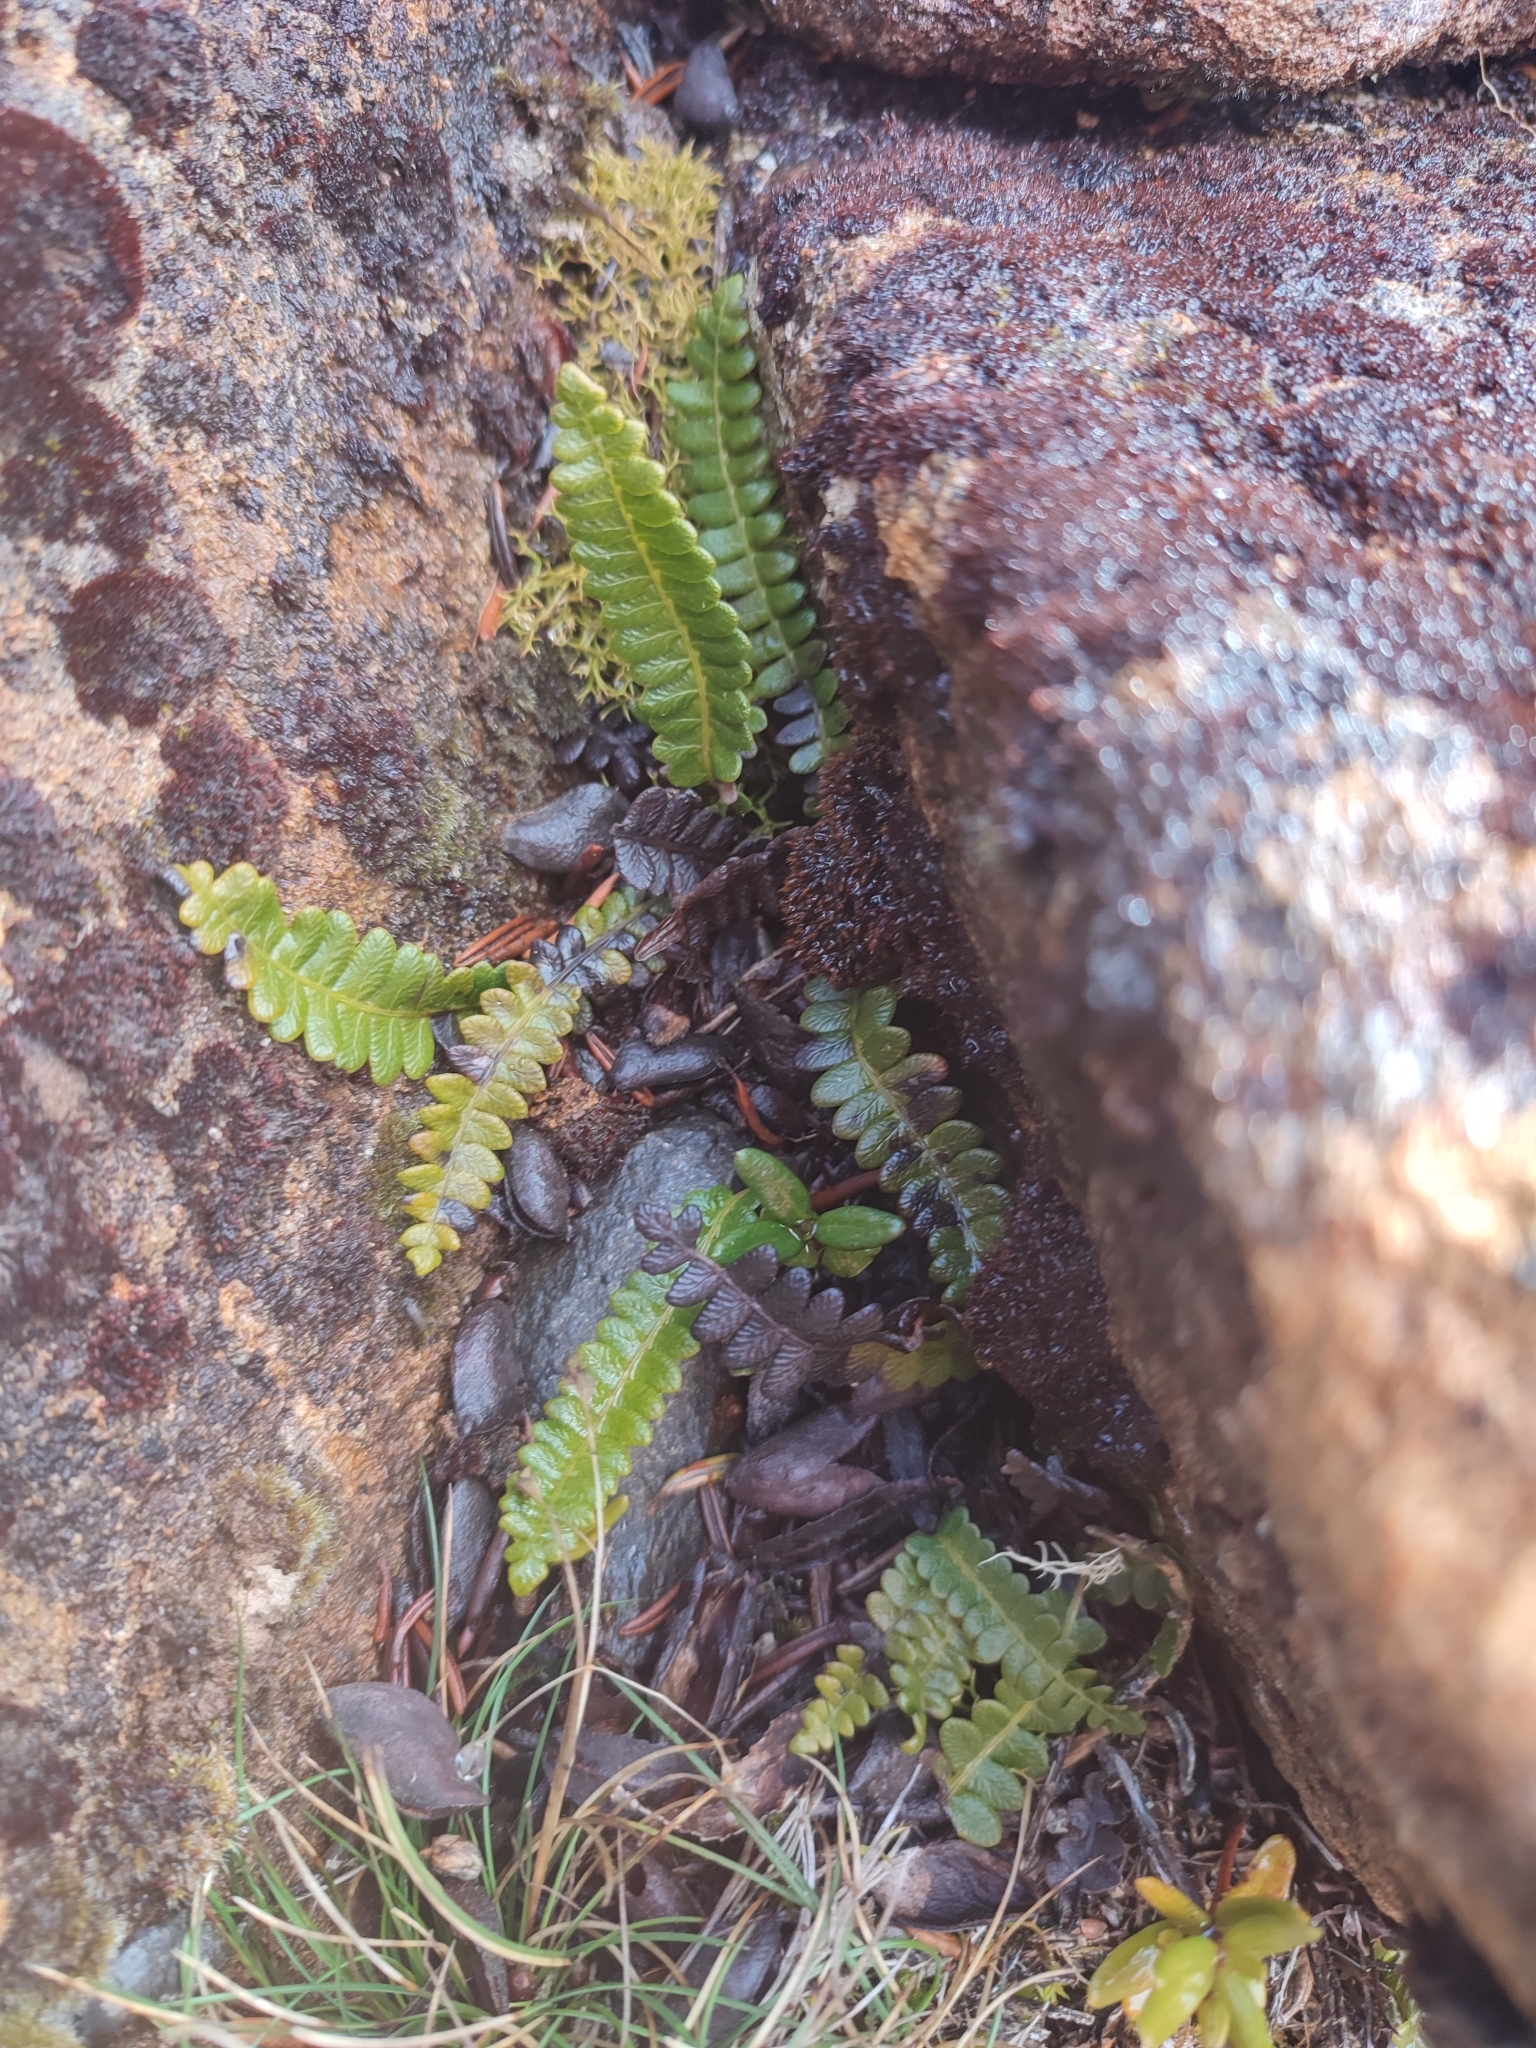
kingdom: Plantae
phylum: Tracheophyta
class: Polypodiopsida
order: Polypodiales
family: Blechnaceae
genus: Austroblechnum
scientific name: Austroblechnum penna-marina
